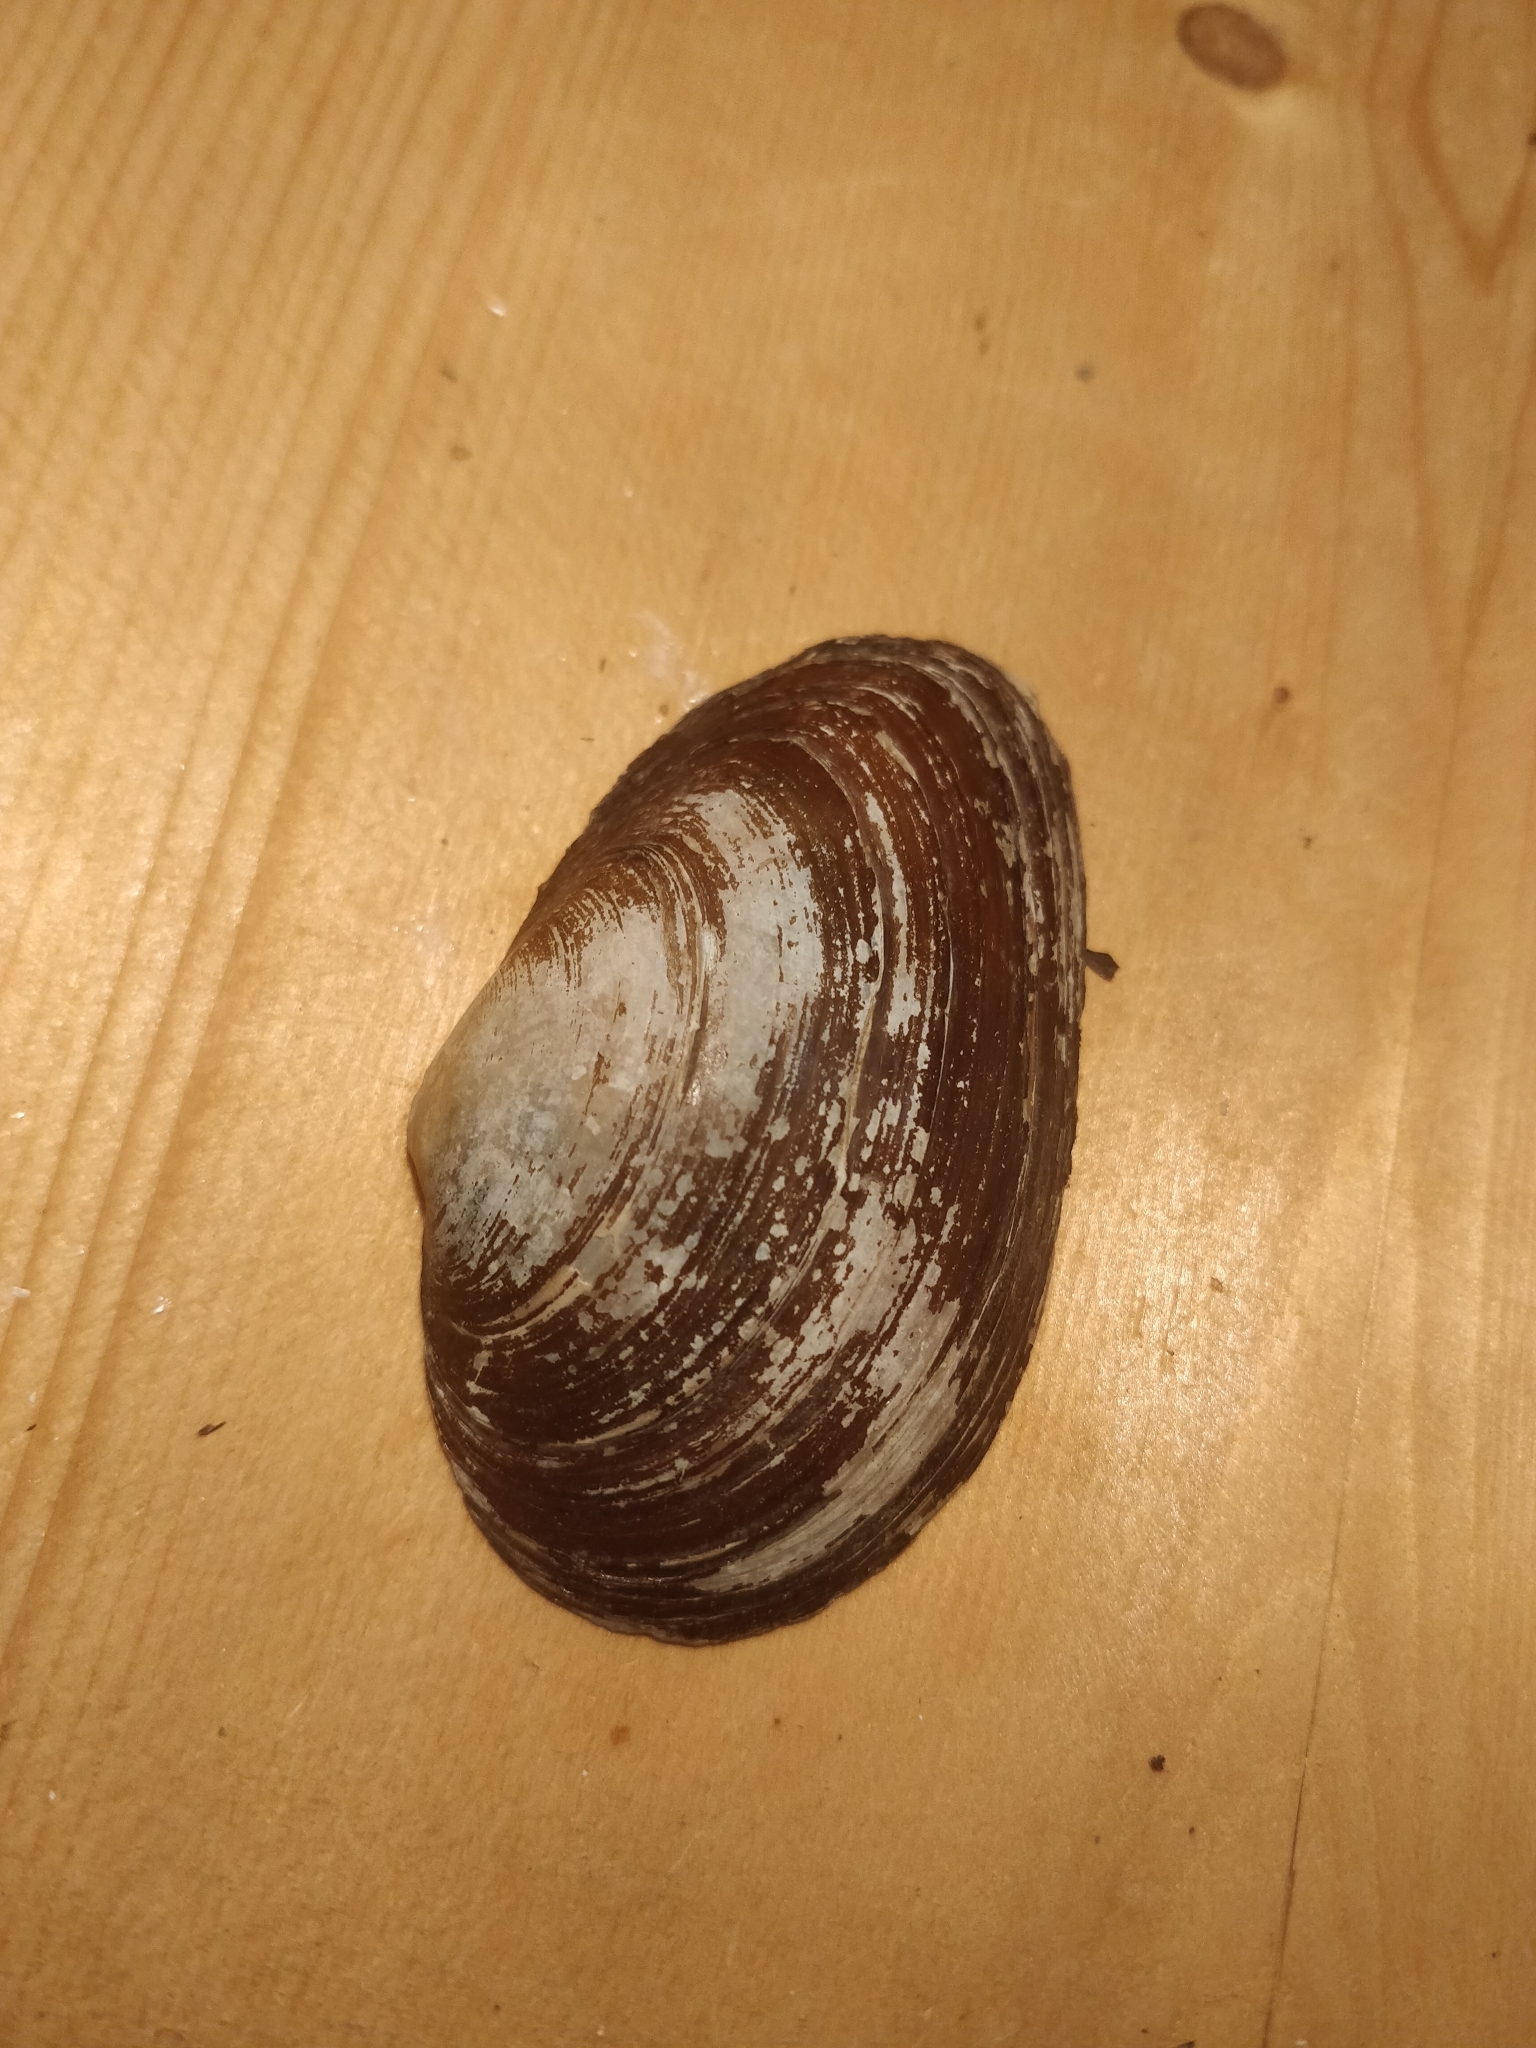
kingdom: Animalia
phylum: Mollusca
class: Bivalvia
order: Unionida
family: Unionidae
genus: Strophitus
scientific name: Strophitus undulatus
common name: Creeper
